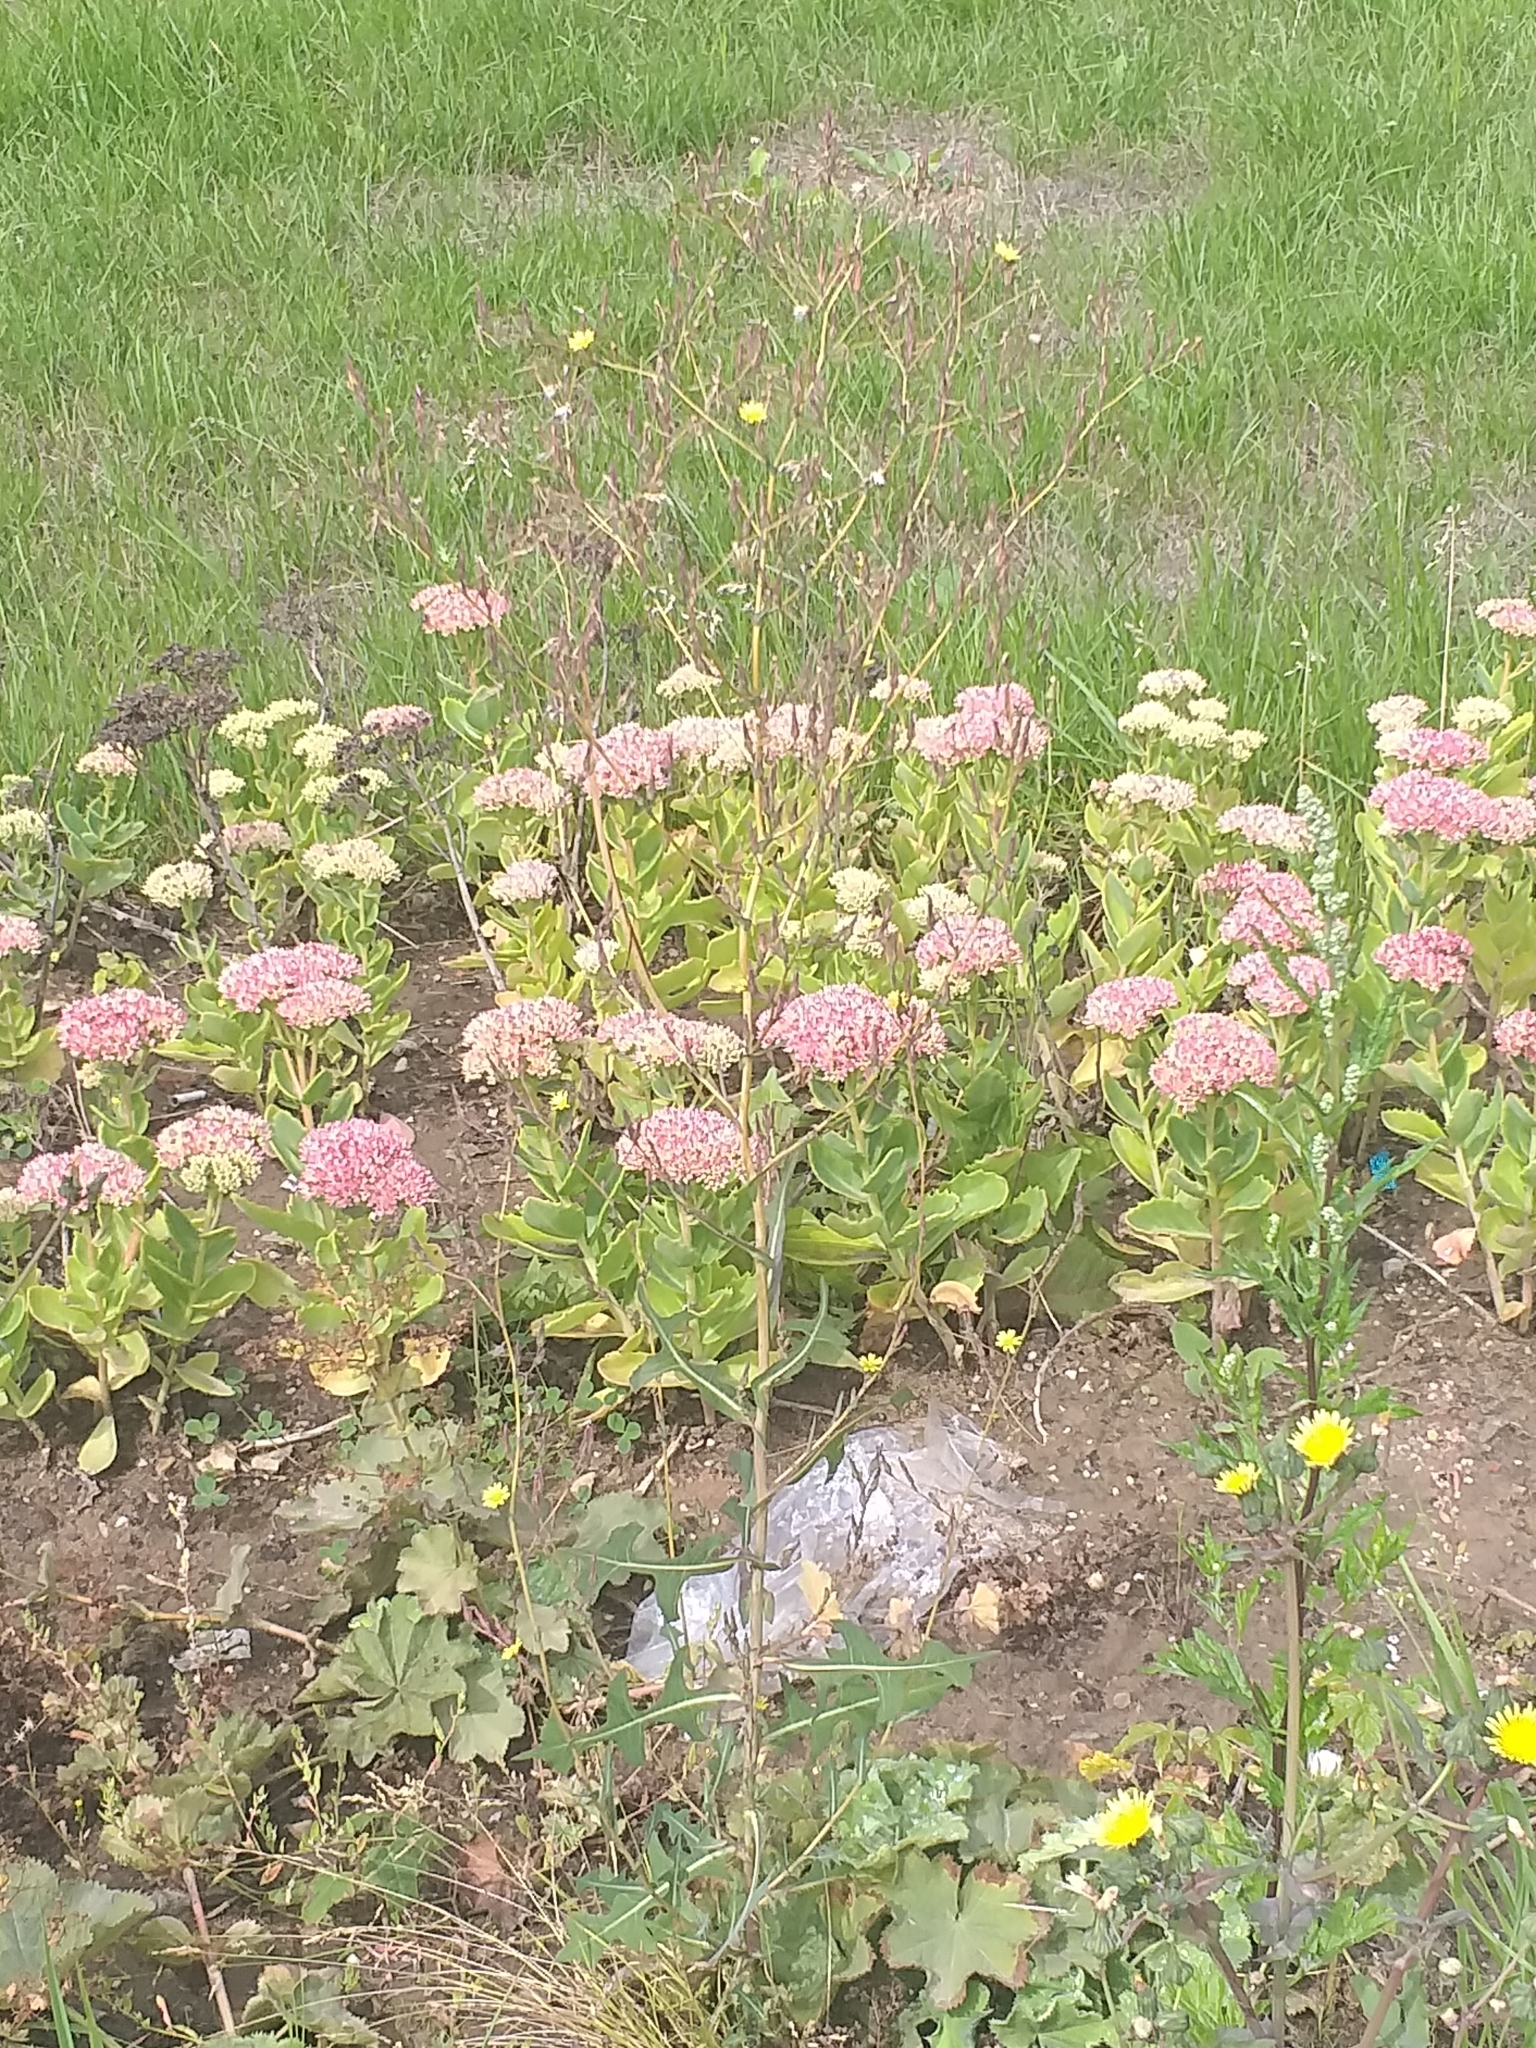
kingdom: Plantae
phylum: Tracheophyta
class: Magnoliopsida
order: Asterales
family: Asteraceae
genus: Lactuca
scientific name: Lactuca serriola
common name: Prickly lettuce
